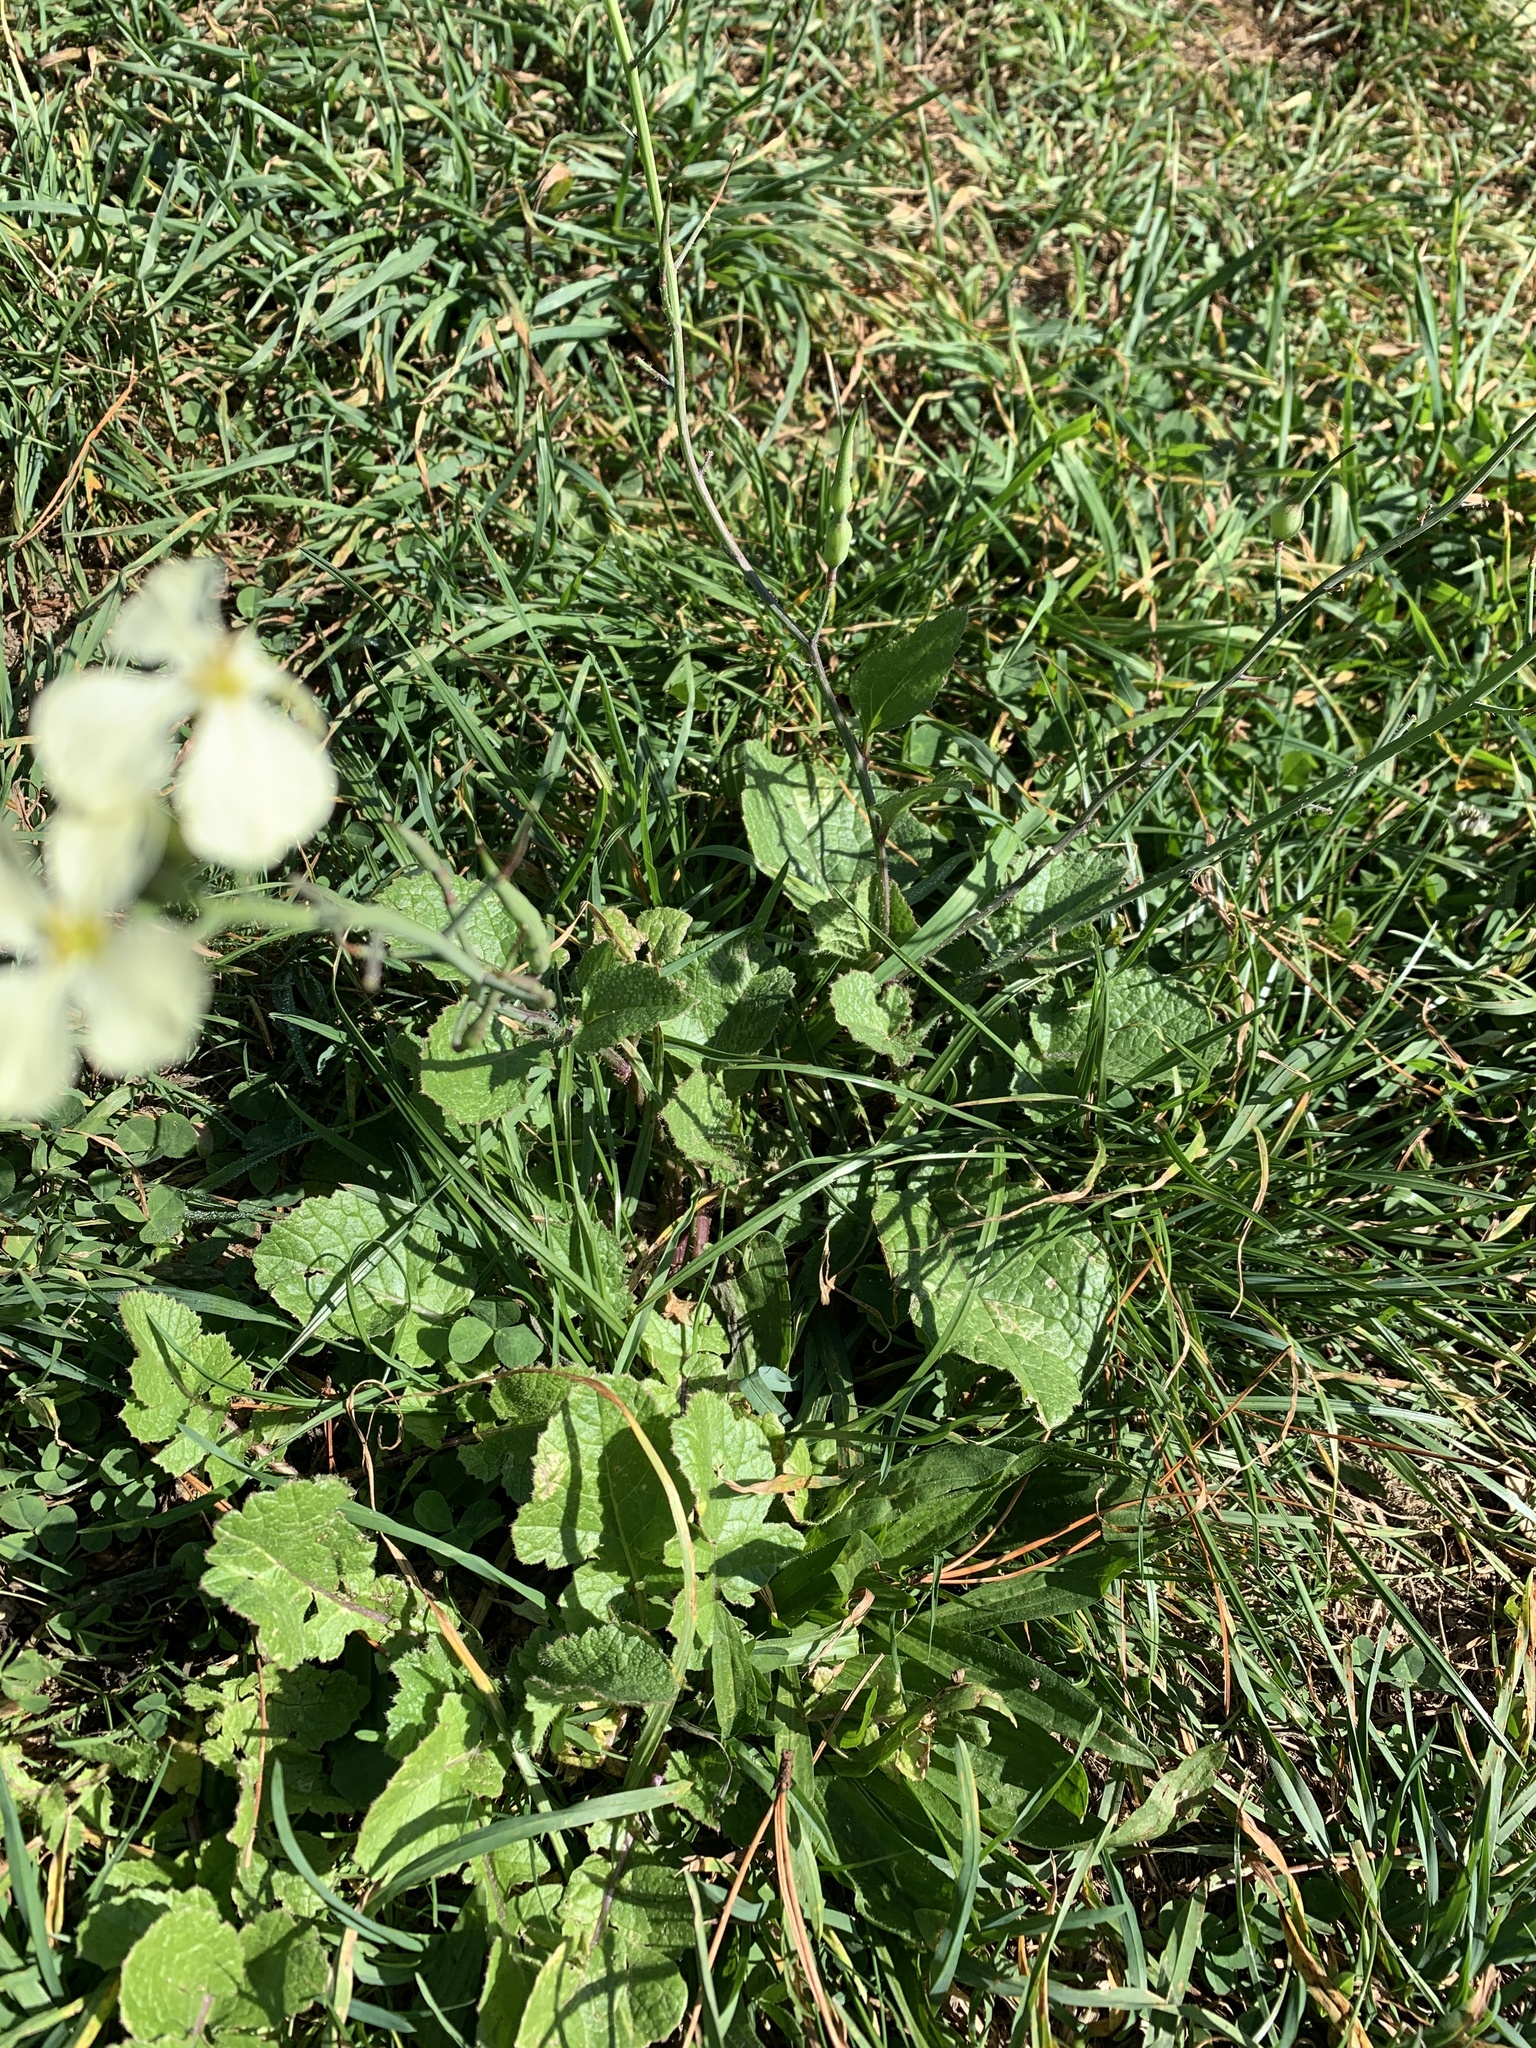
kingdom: Plantae
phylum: Tracheophyta
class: Magnoliopsida
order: Brassicales
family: Brassicaceae
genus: Raphanus
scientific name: Raphanus raphanistrum
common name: Wild radish
